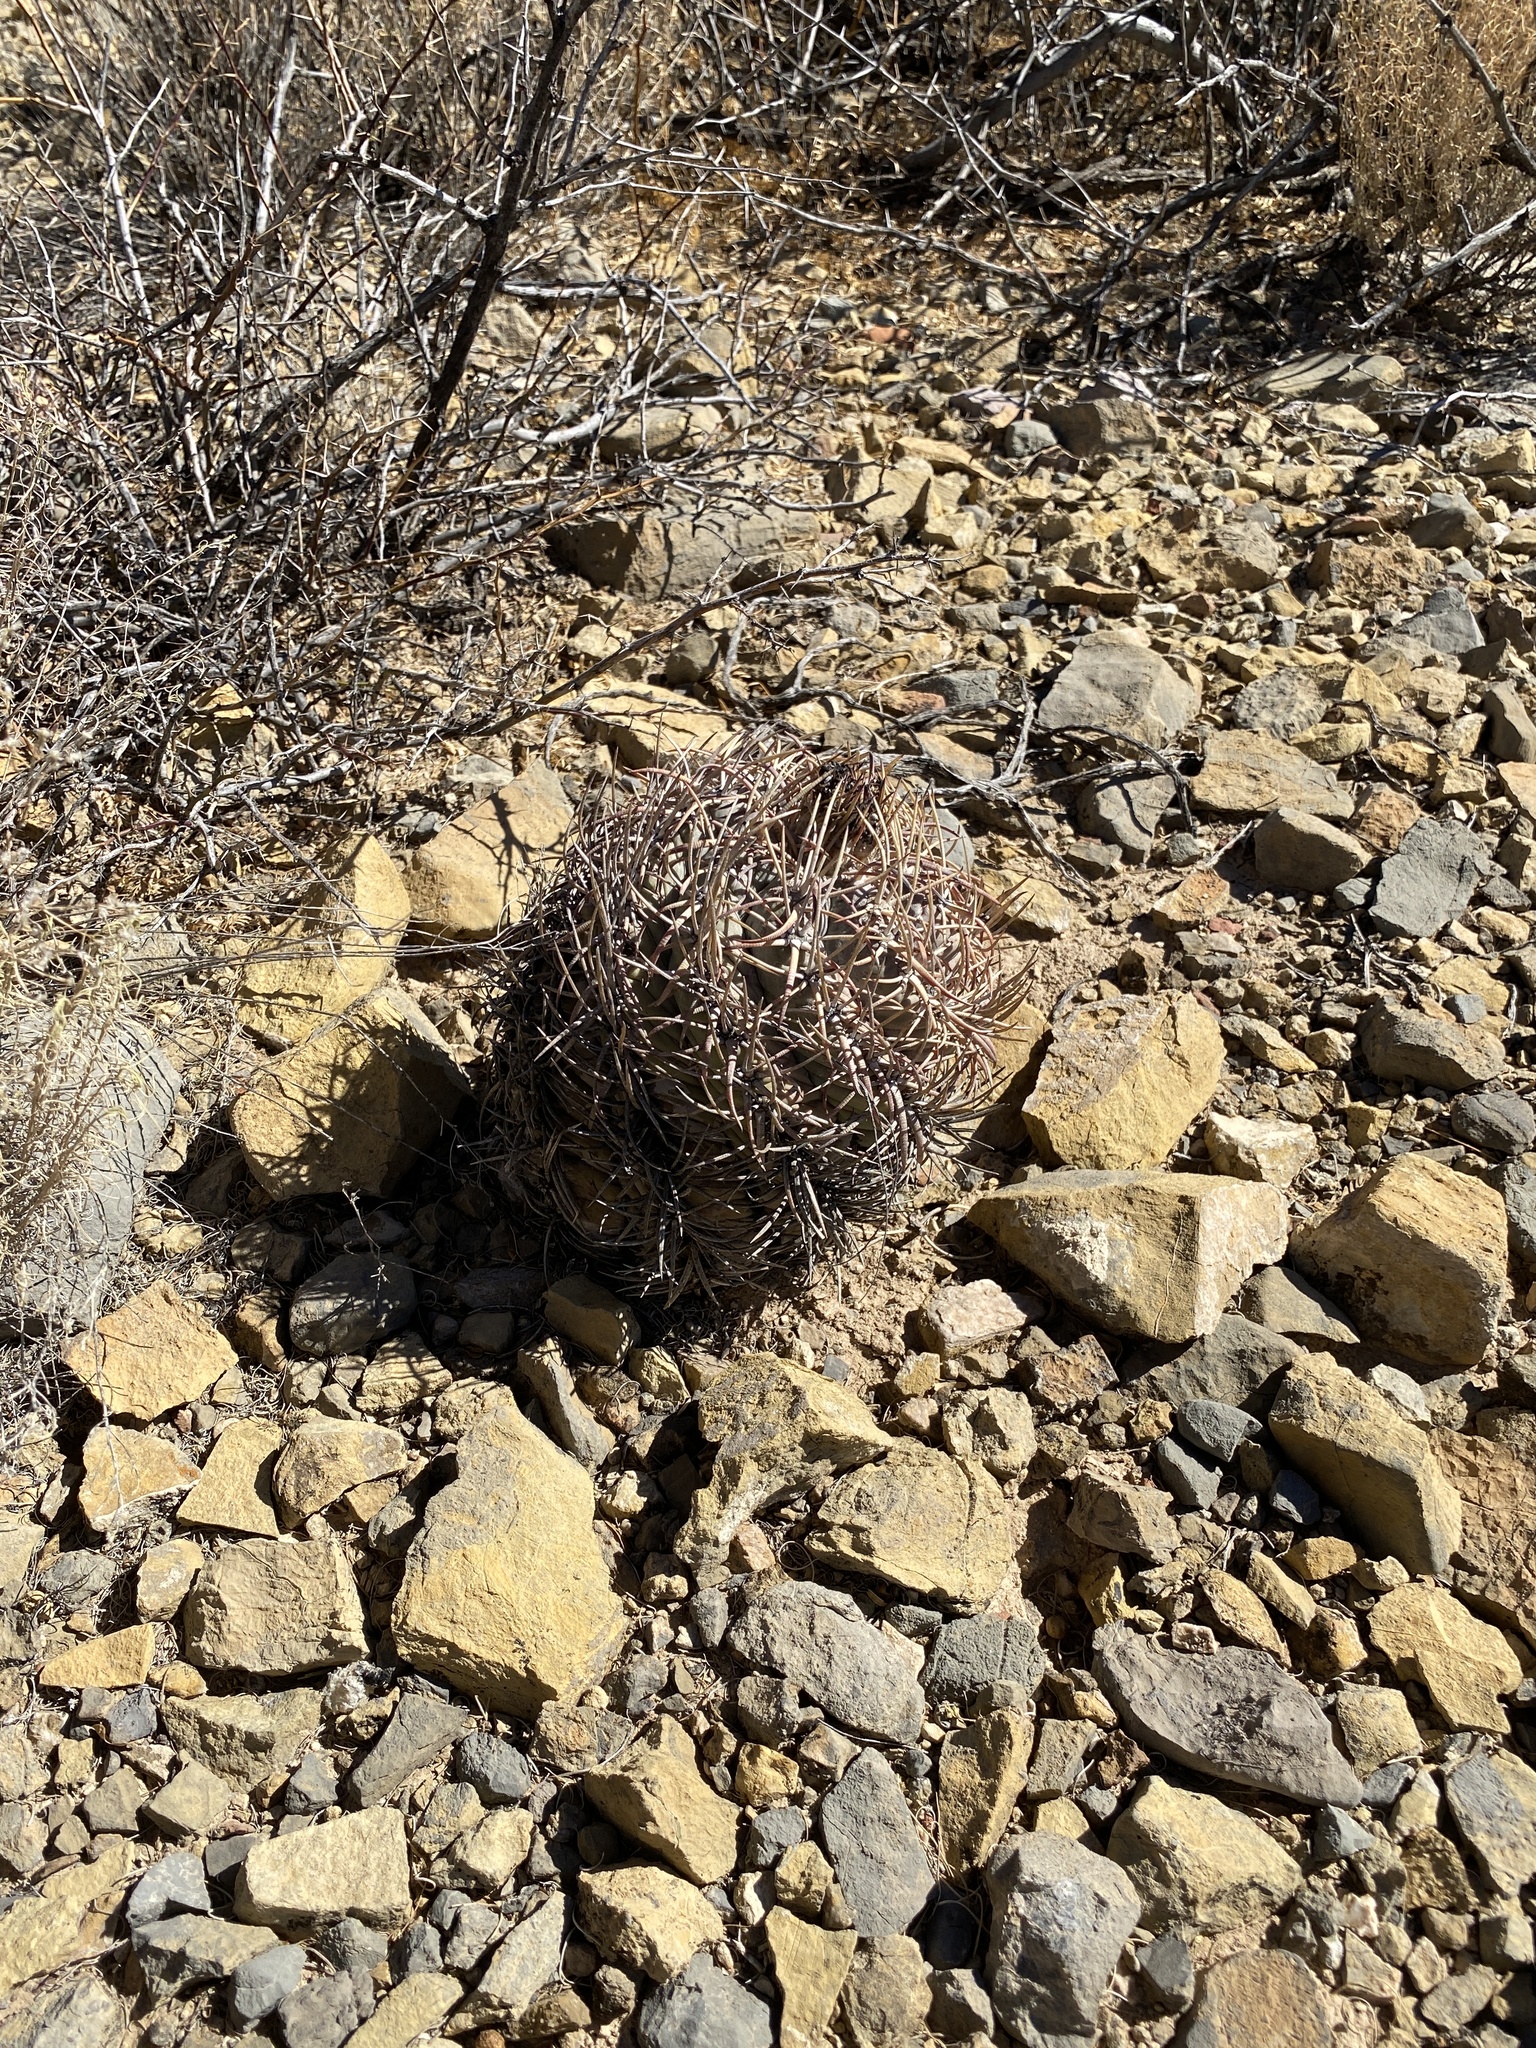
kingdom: Plantae
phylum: Tracheophyta
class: Magnoliopsida
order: Caryophyllales
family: Cactaceae
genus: Echinocactus
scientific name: Echinocactus horizonthalonius
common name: Devilshead
